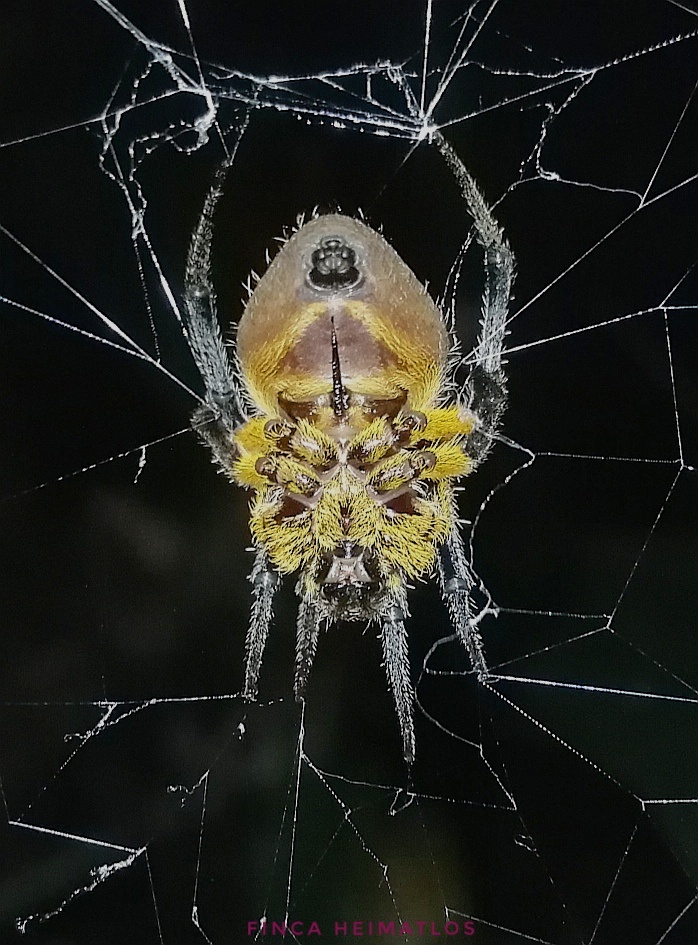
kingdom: Animalia
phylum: Arthropoda
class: Arachnida
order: Araneae
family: Araneidae
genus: Eriophora
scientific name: Eriophora fuliginea
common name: Orb weavers
